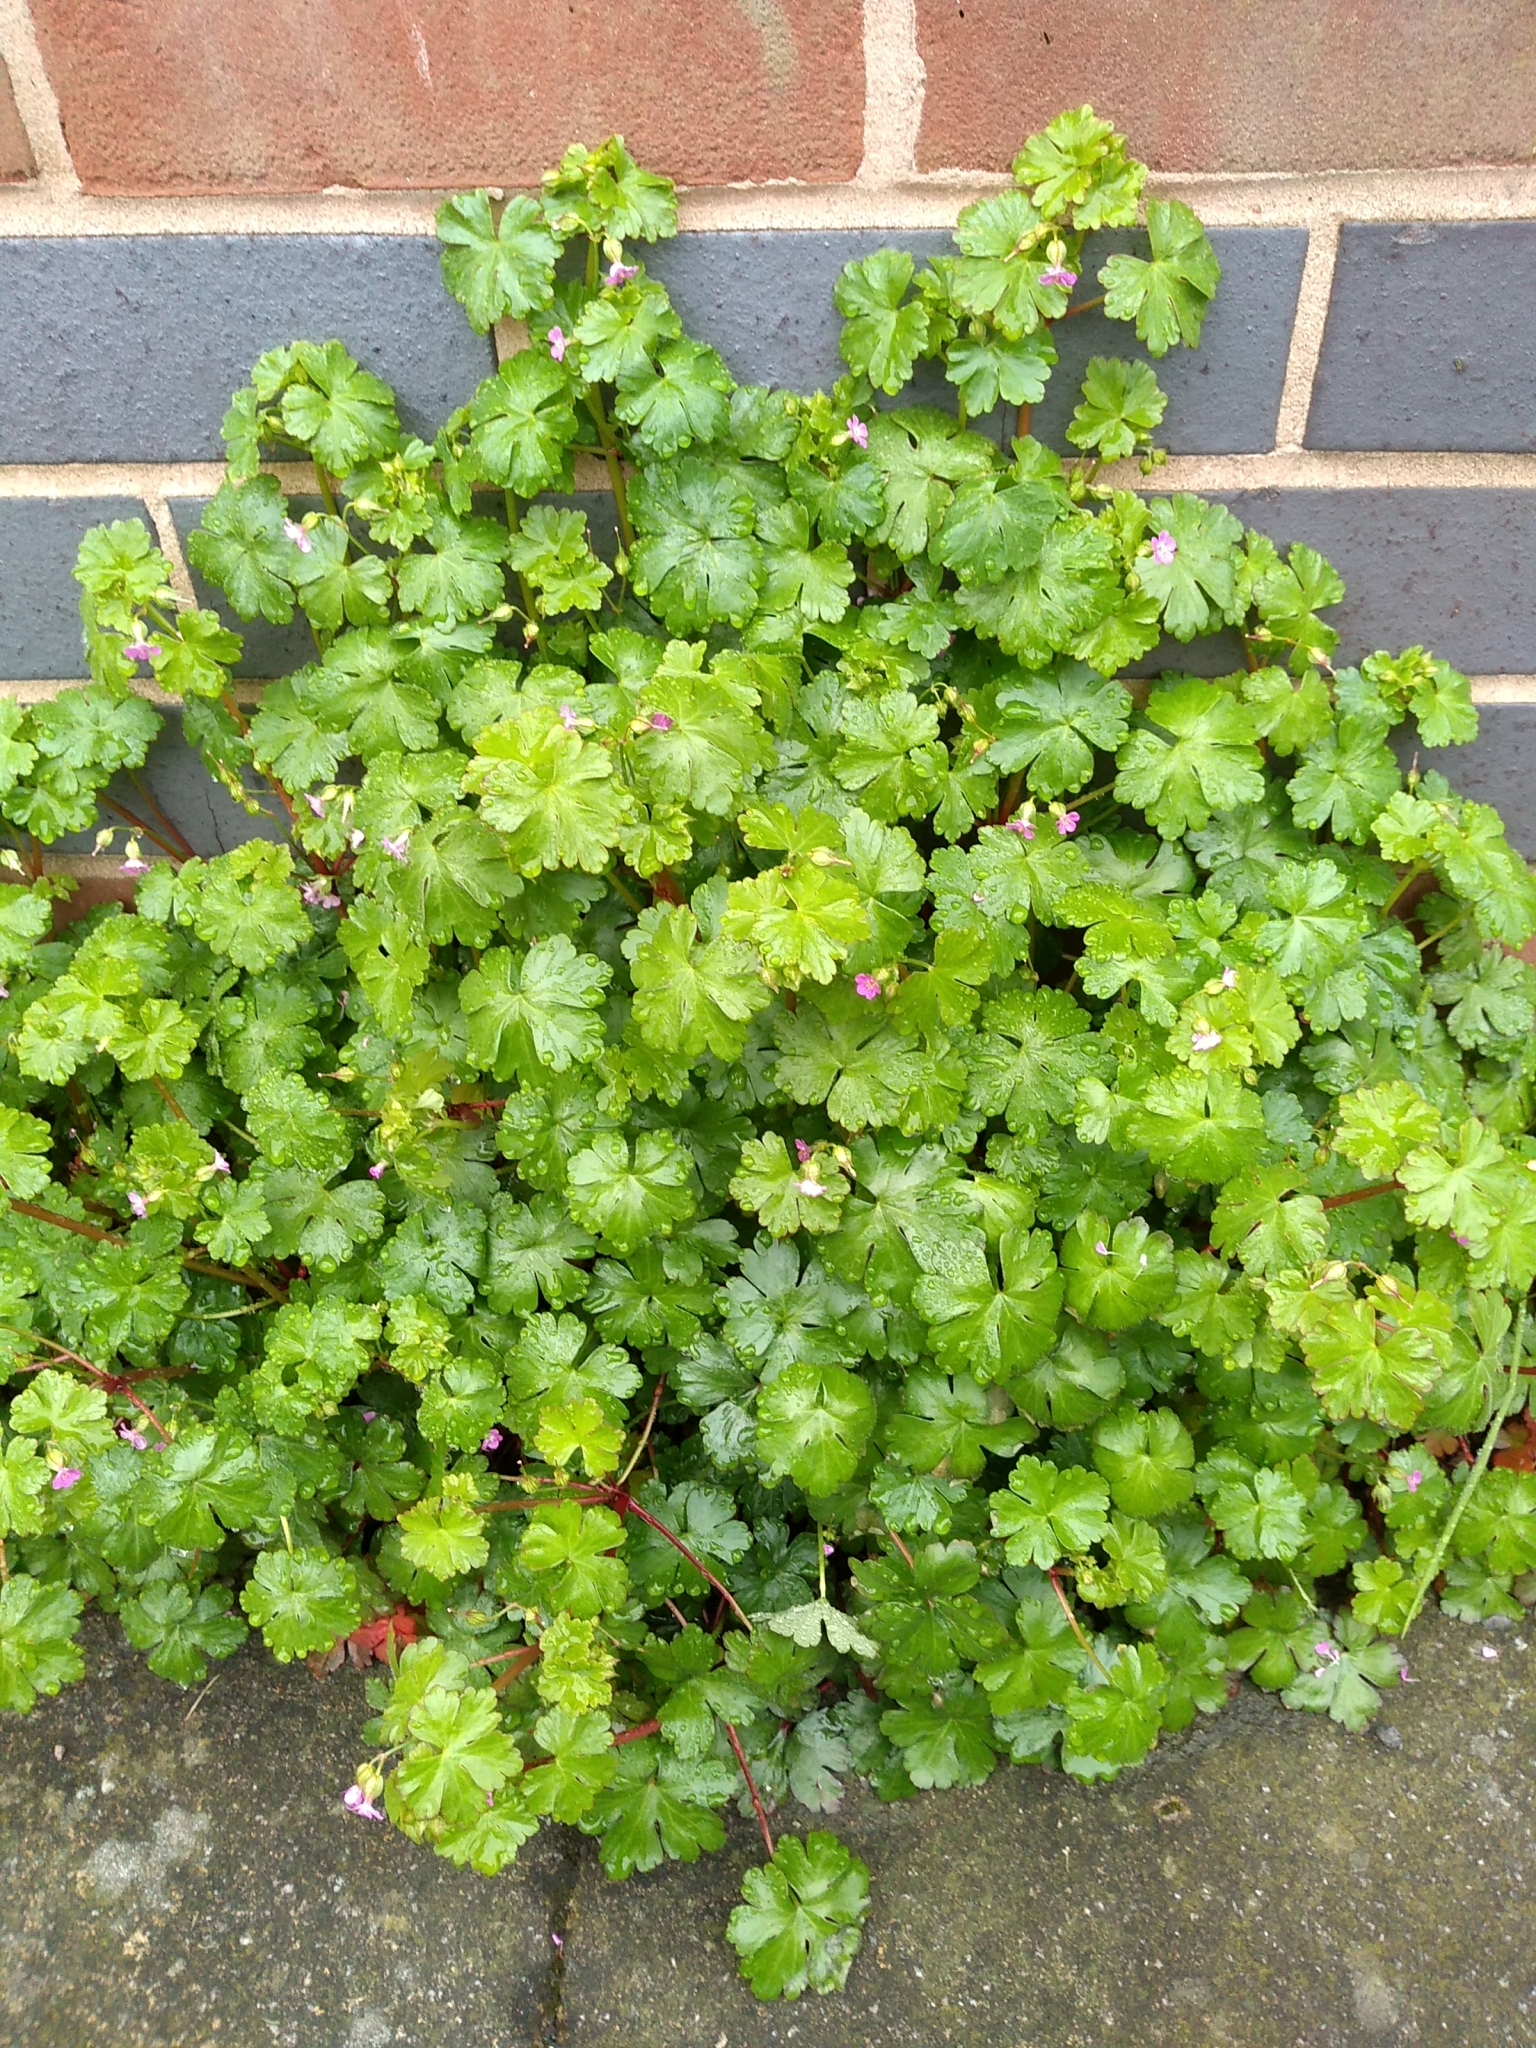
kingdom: Plantae
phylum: Tracheophyta
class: Magnoliopsida
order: Geraniales
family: Geraniaceae
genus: Geranium
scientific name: Geranium lucidum
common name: Shining crane's-bill
